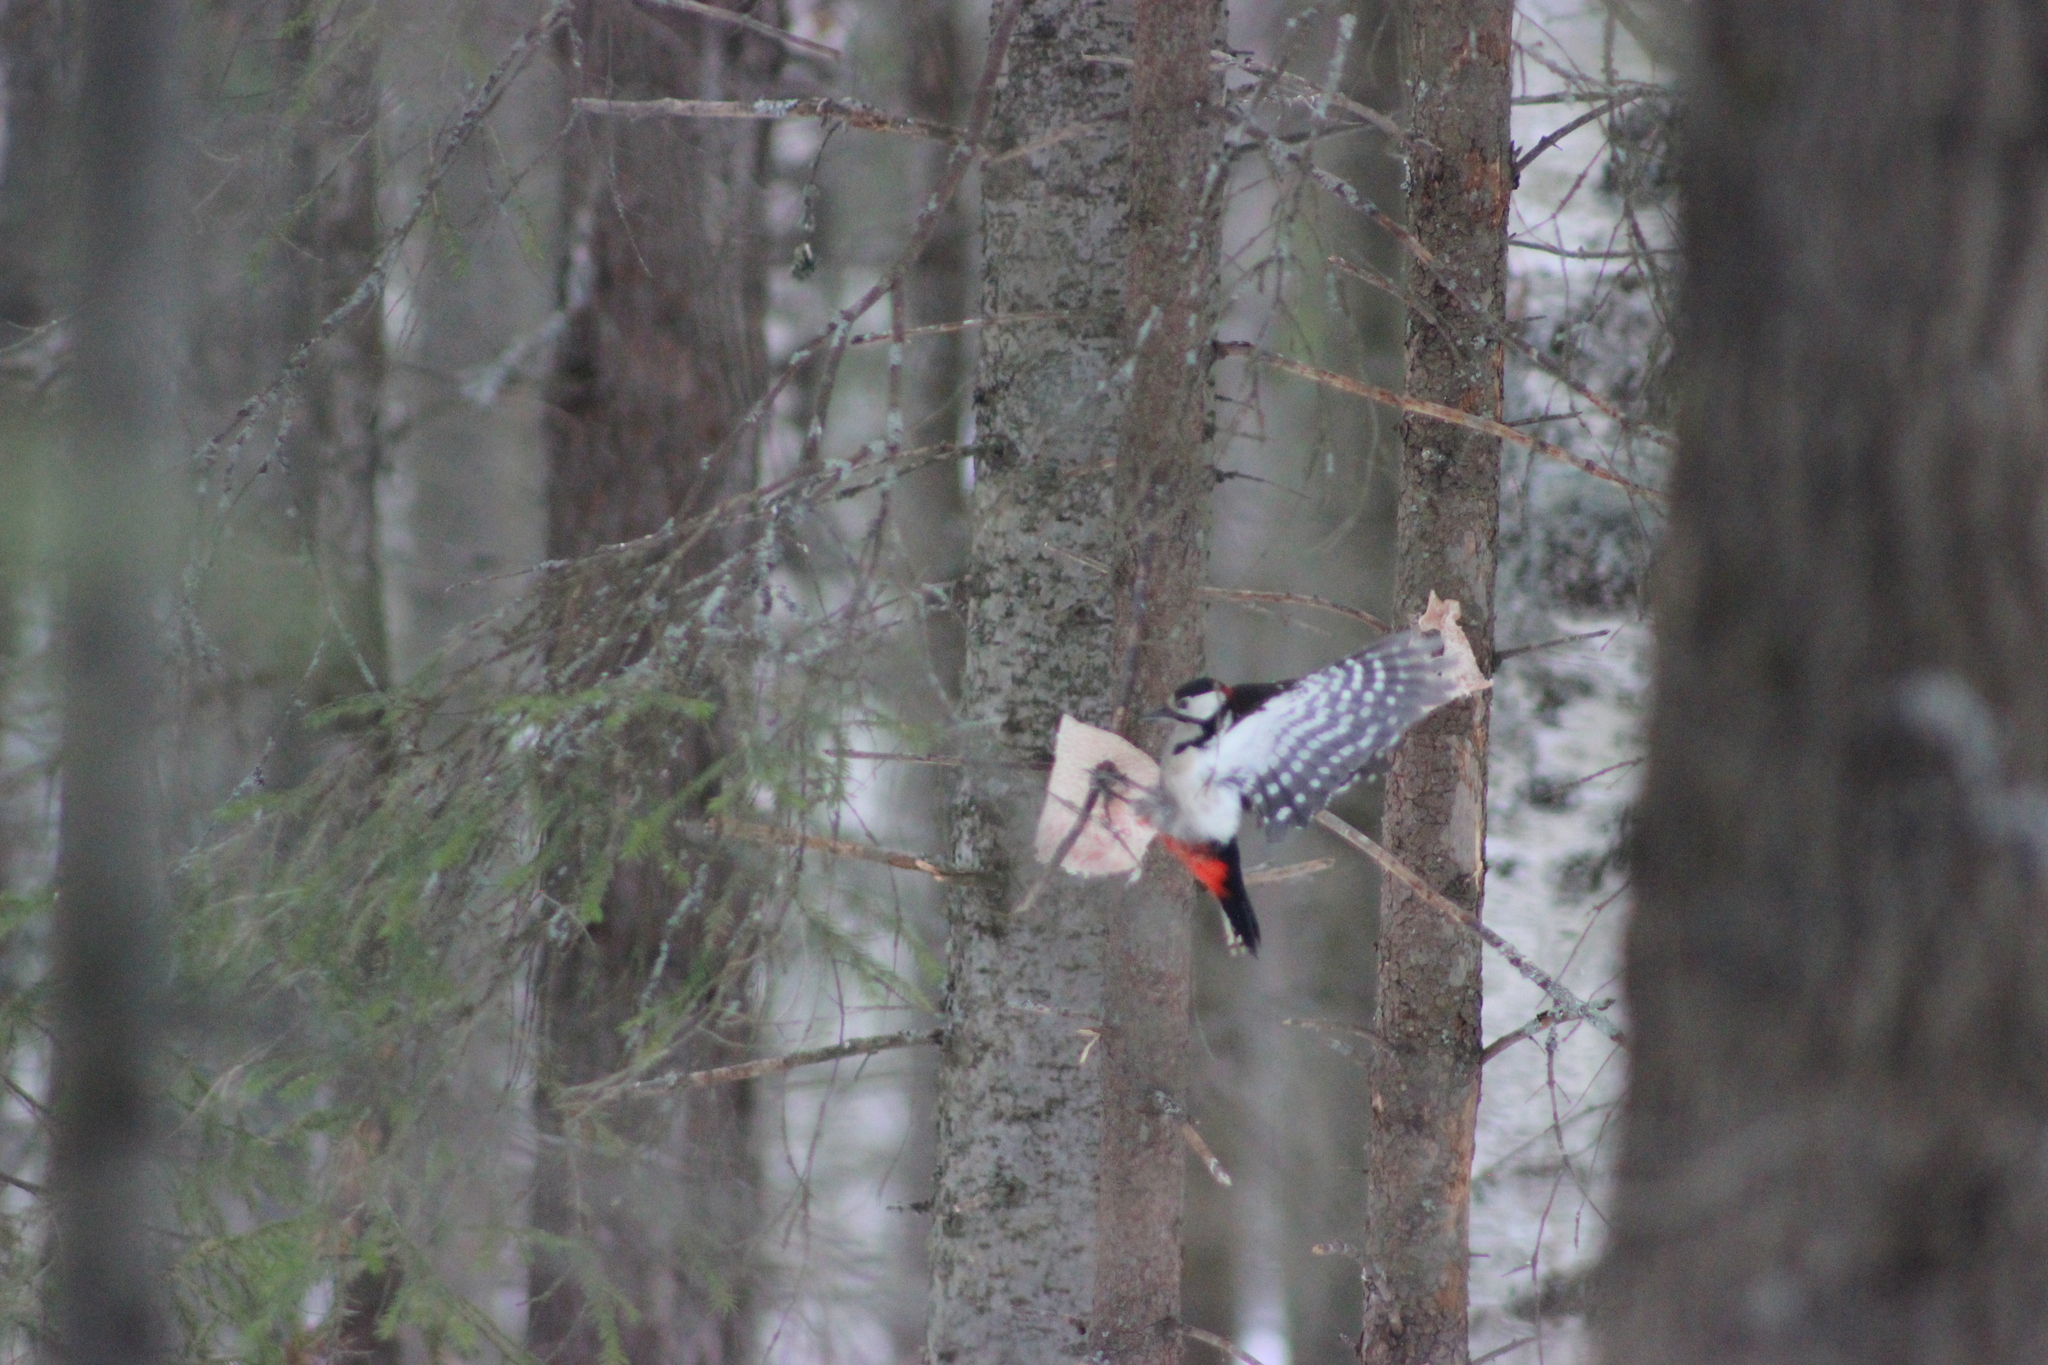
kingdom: Animalia
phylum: Chordata
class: Aves
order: Piciformes
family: Picidae
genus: Dendrocopos
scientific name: Dendrocopos major
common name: Great spotted woodpecker
